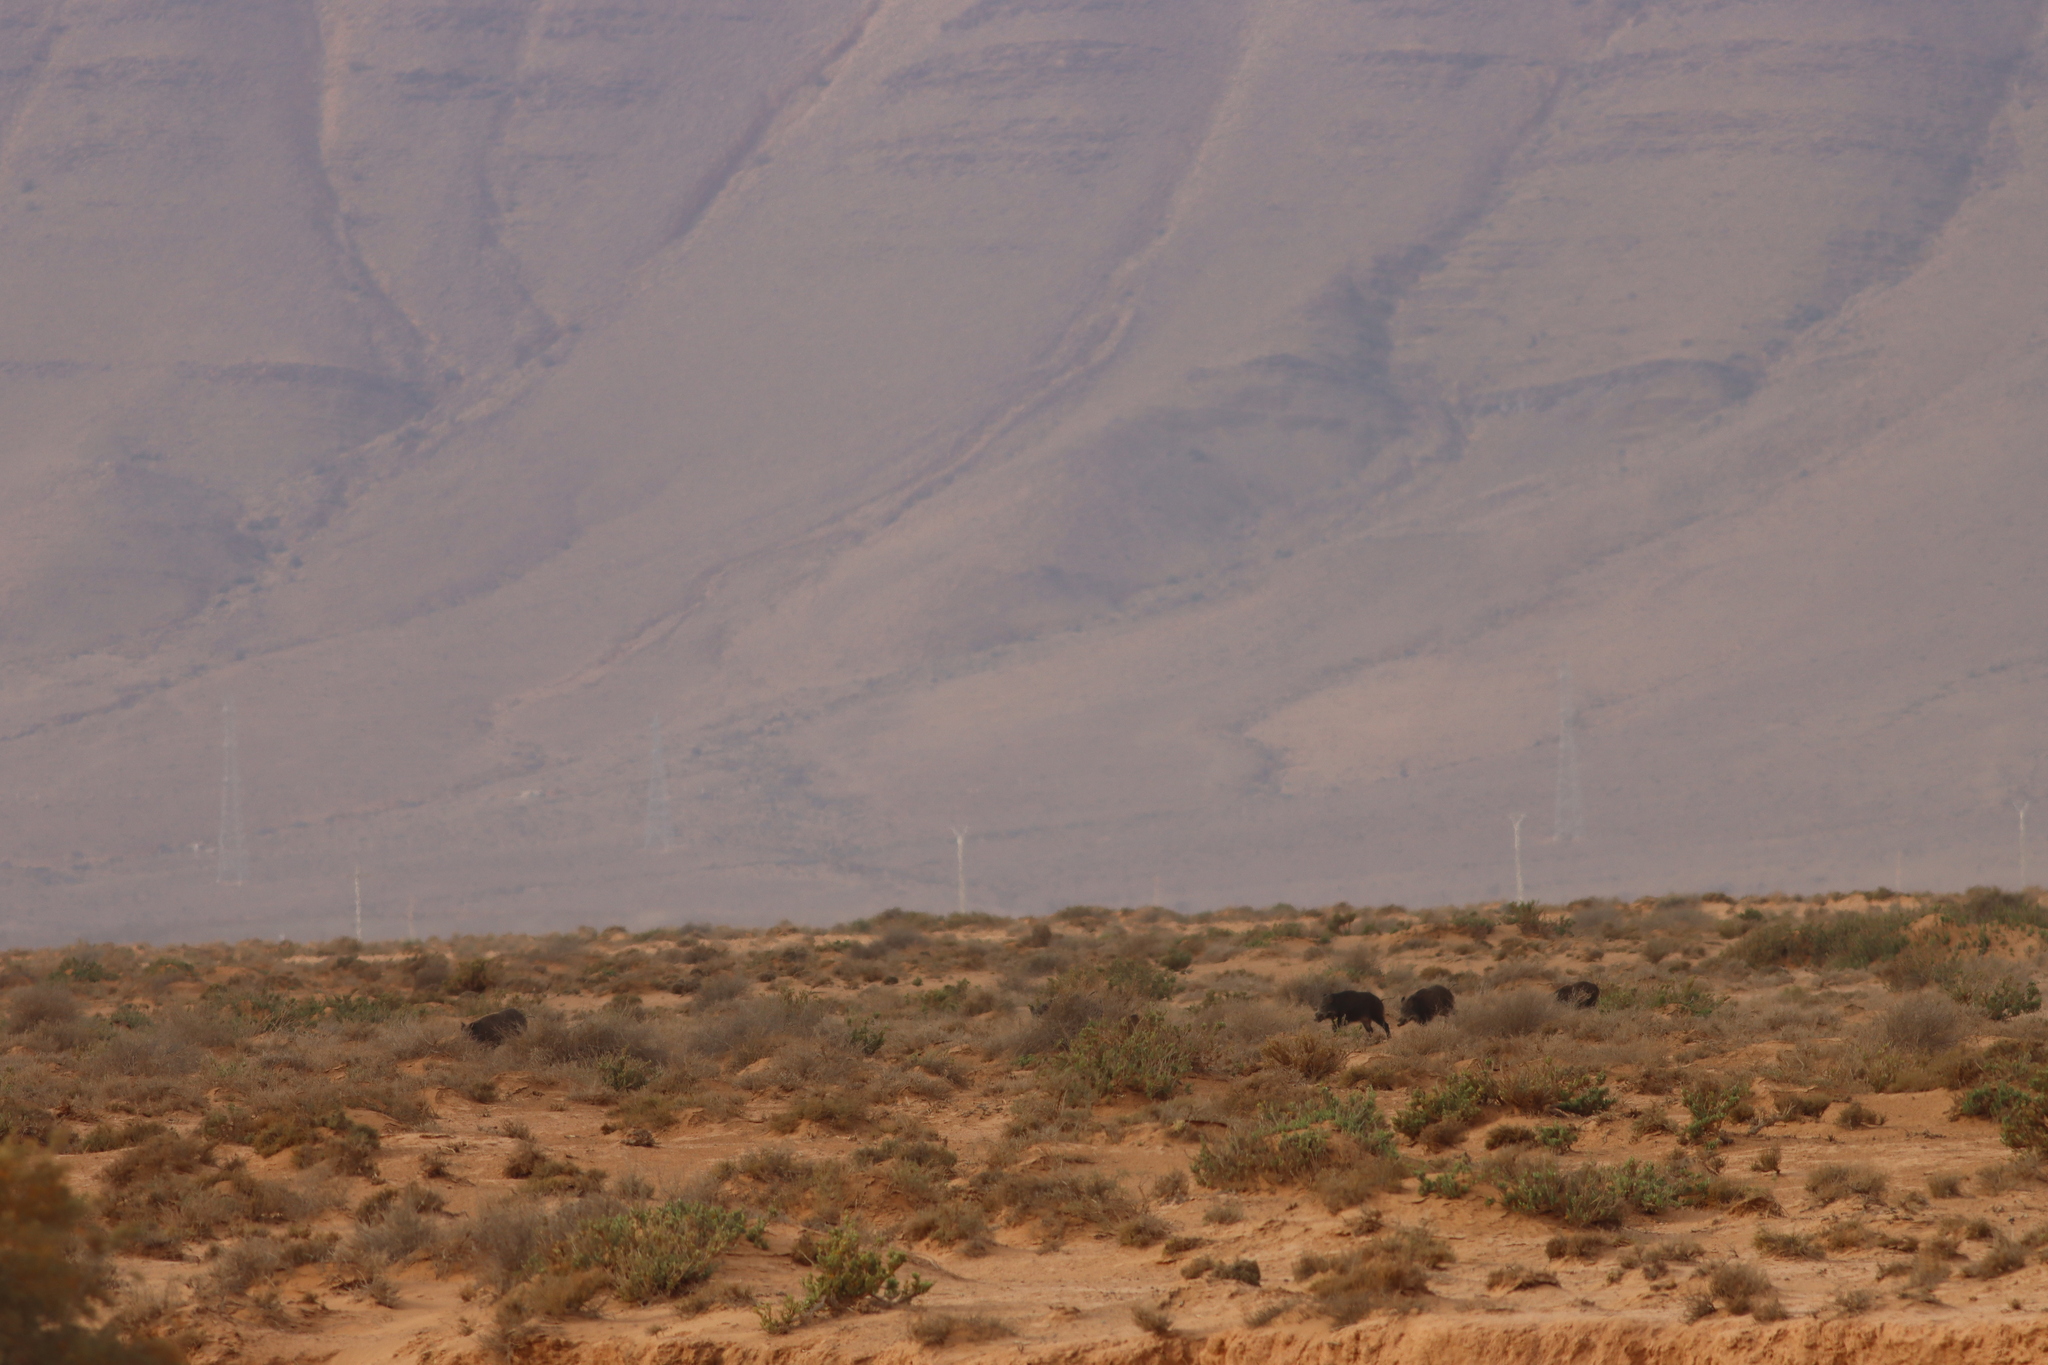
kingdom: Animalia
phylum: Chordata
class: Mammalia
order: Artiodactyla
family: Suidae
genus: Sus
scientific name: Sus scrofa
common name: Wild boar
